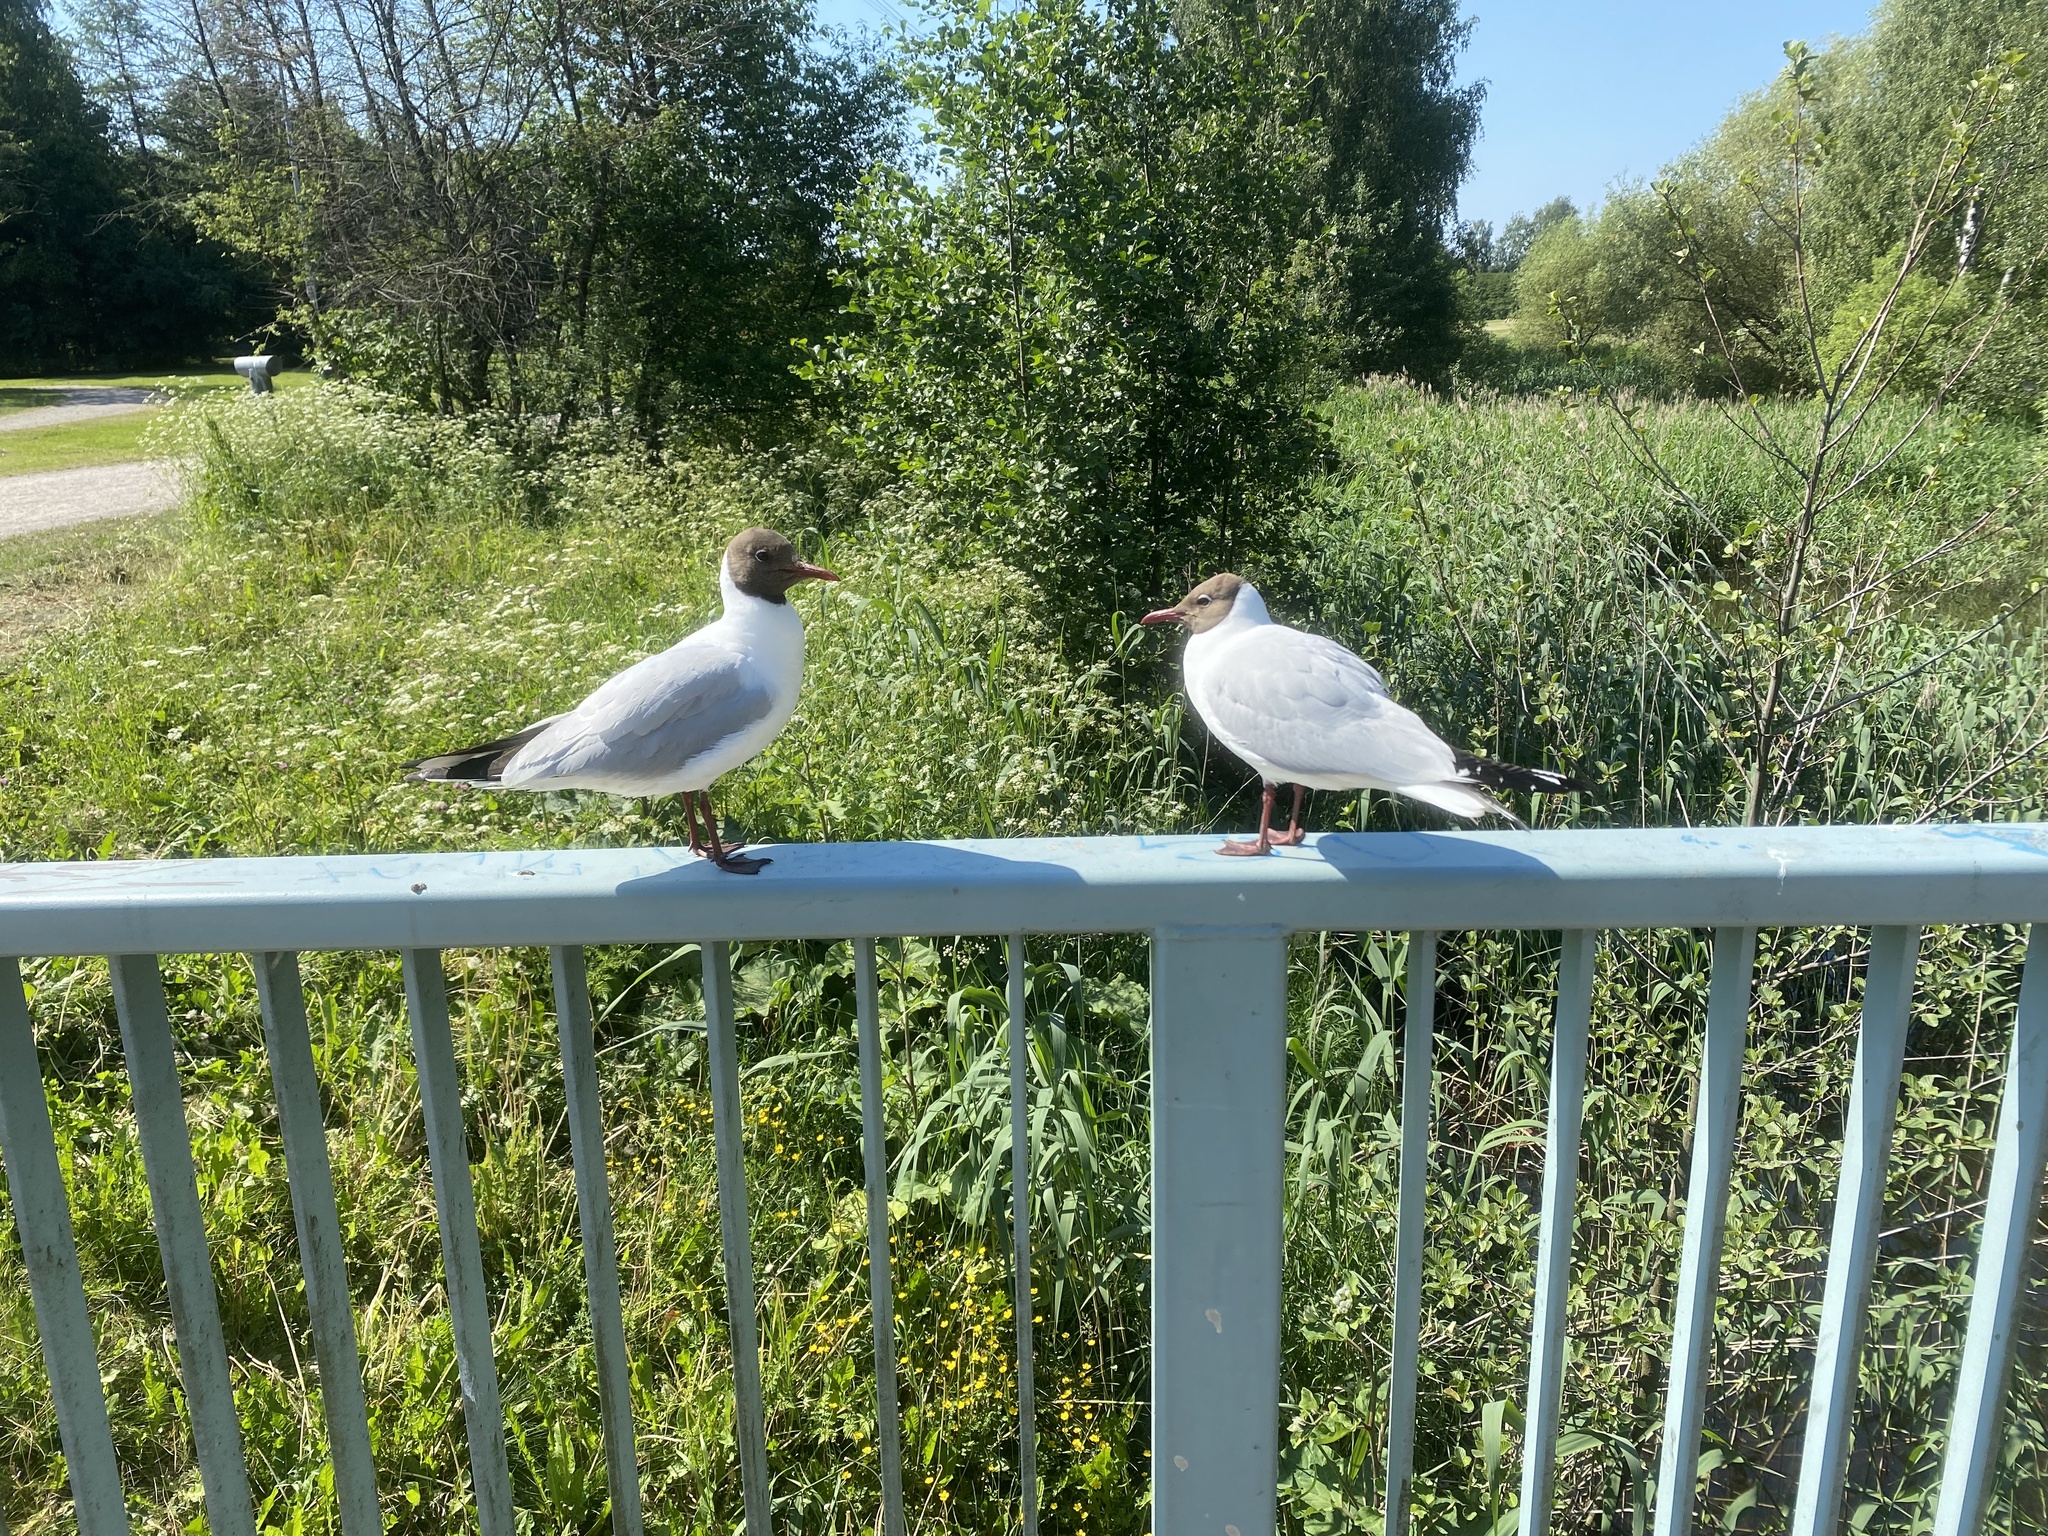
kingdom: Animalia
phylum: Chordata
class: Aves
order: Charadriiformes
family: Laridae
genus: Chroicocephalus
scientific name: Chroicocephalus ridibundus
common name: Black-headed gull
